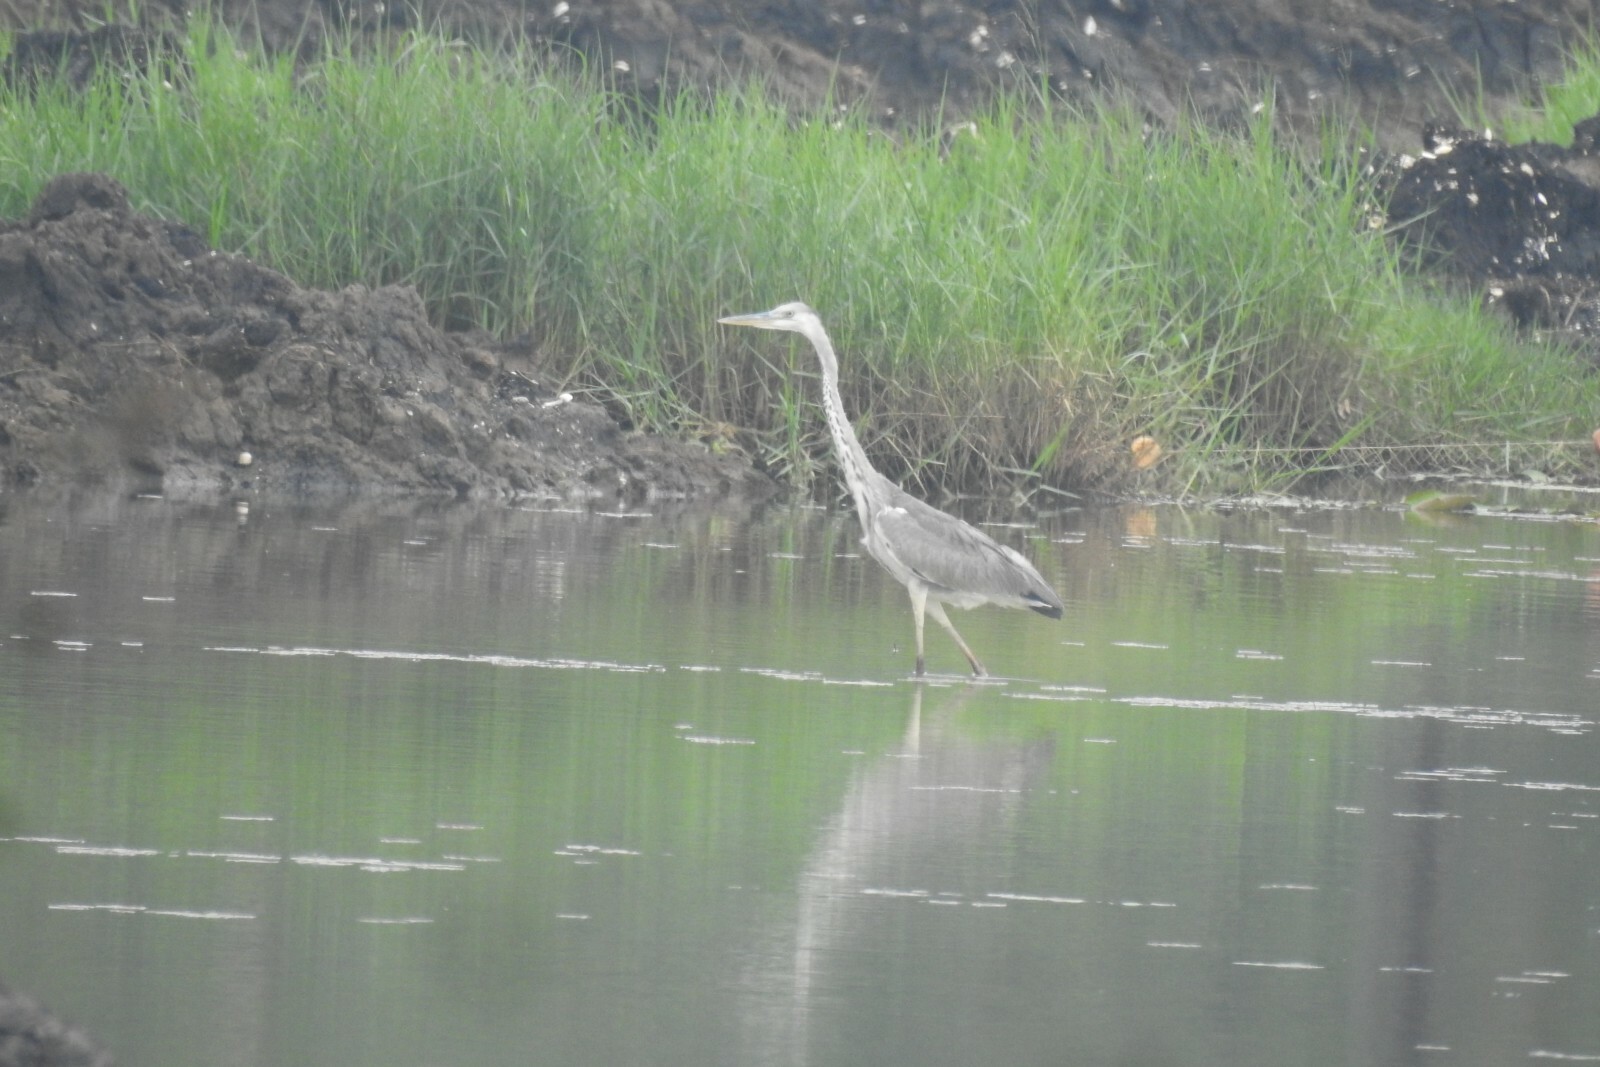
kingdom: Animalia
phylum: Chordata
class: Aves
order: Pelecaniformes
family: Ardeidae
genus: Ardea
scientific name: Ardea cinerea
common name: Grey heron
